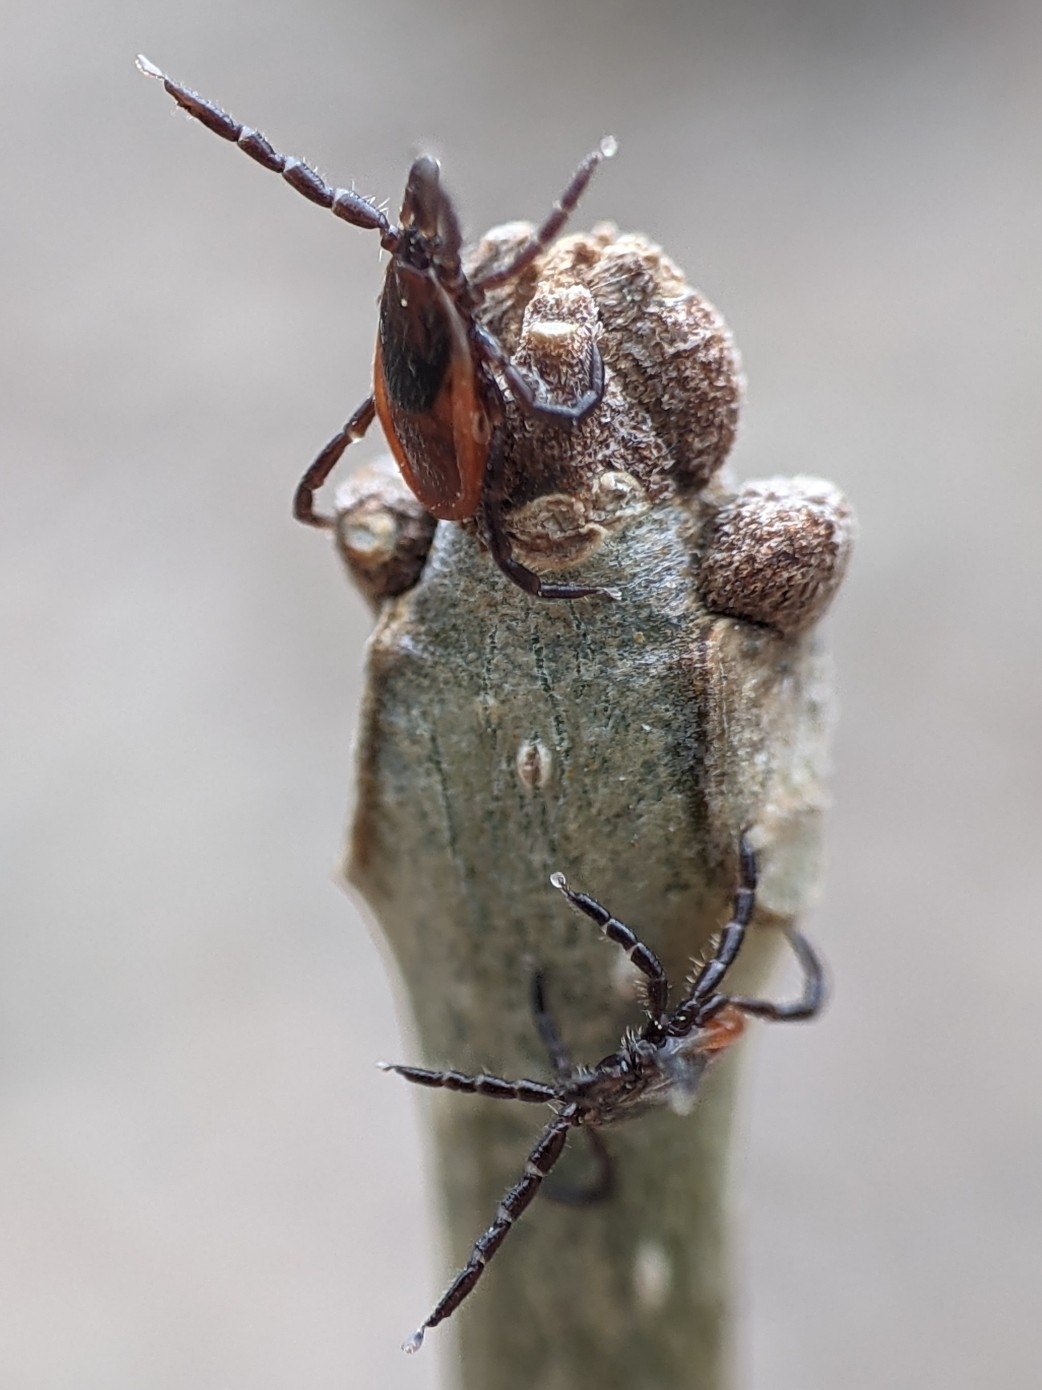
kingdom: Animalia
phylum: Arthropoda
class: Arachnida
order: Ixodida
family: Ixodidae
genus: Ixodes
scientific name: Ixodes scapularis
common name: Black legged tick
